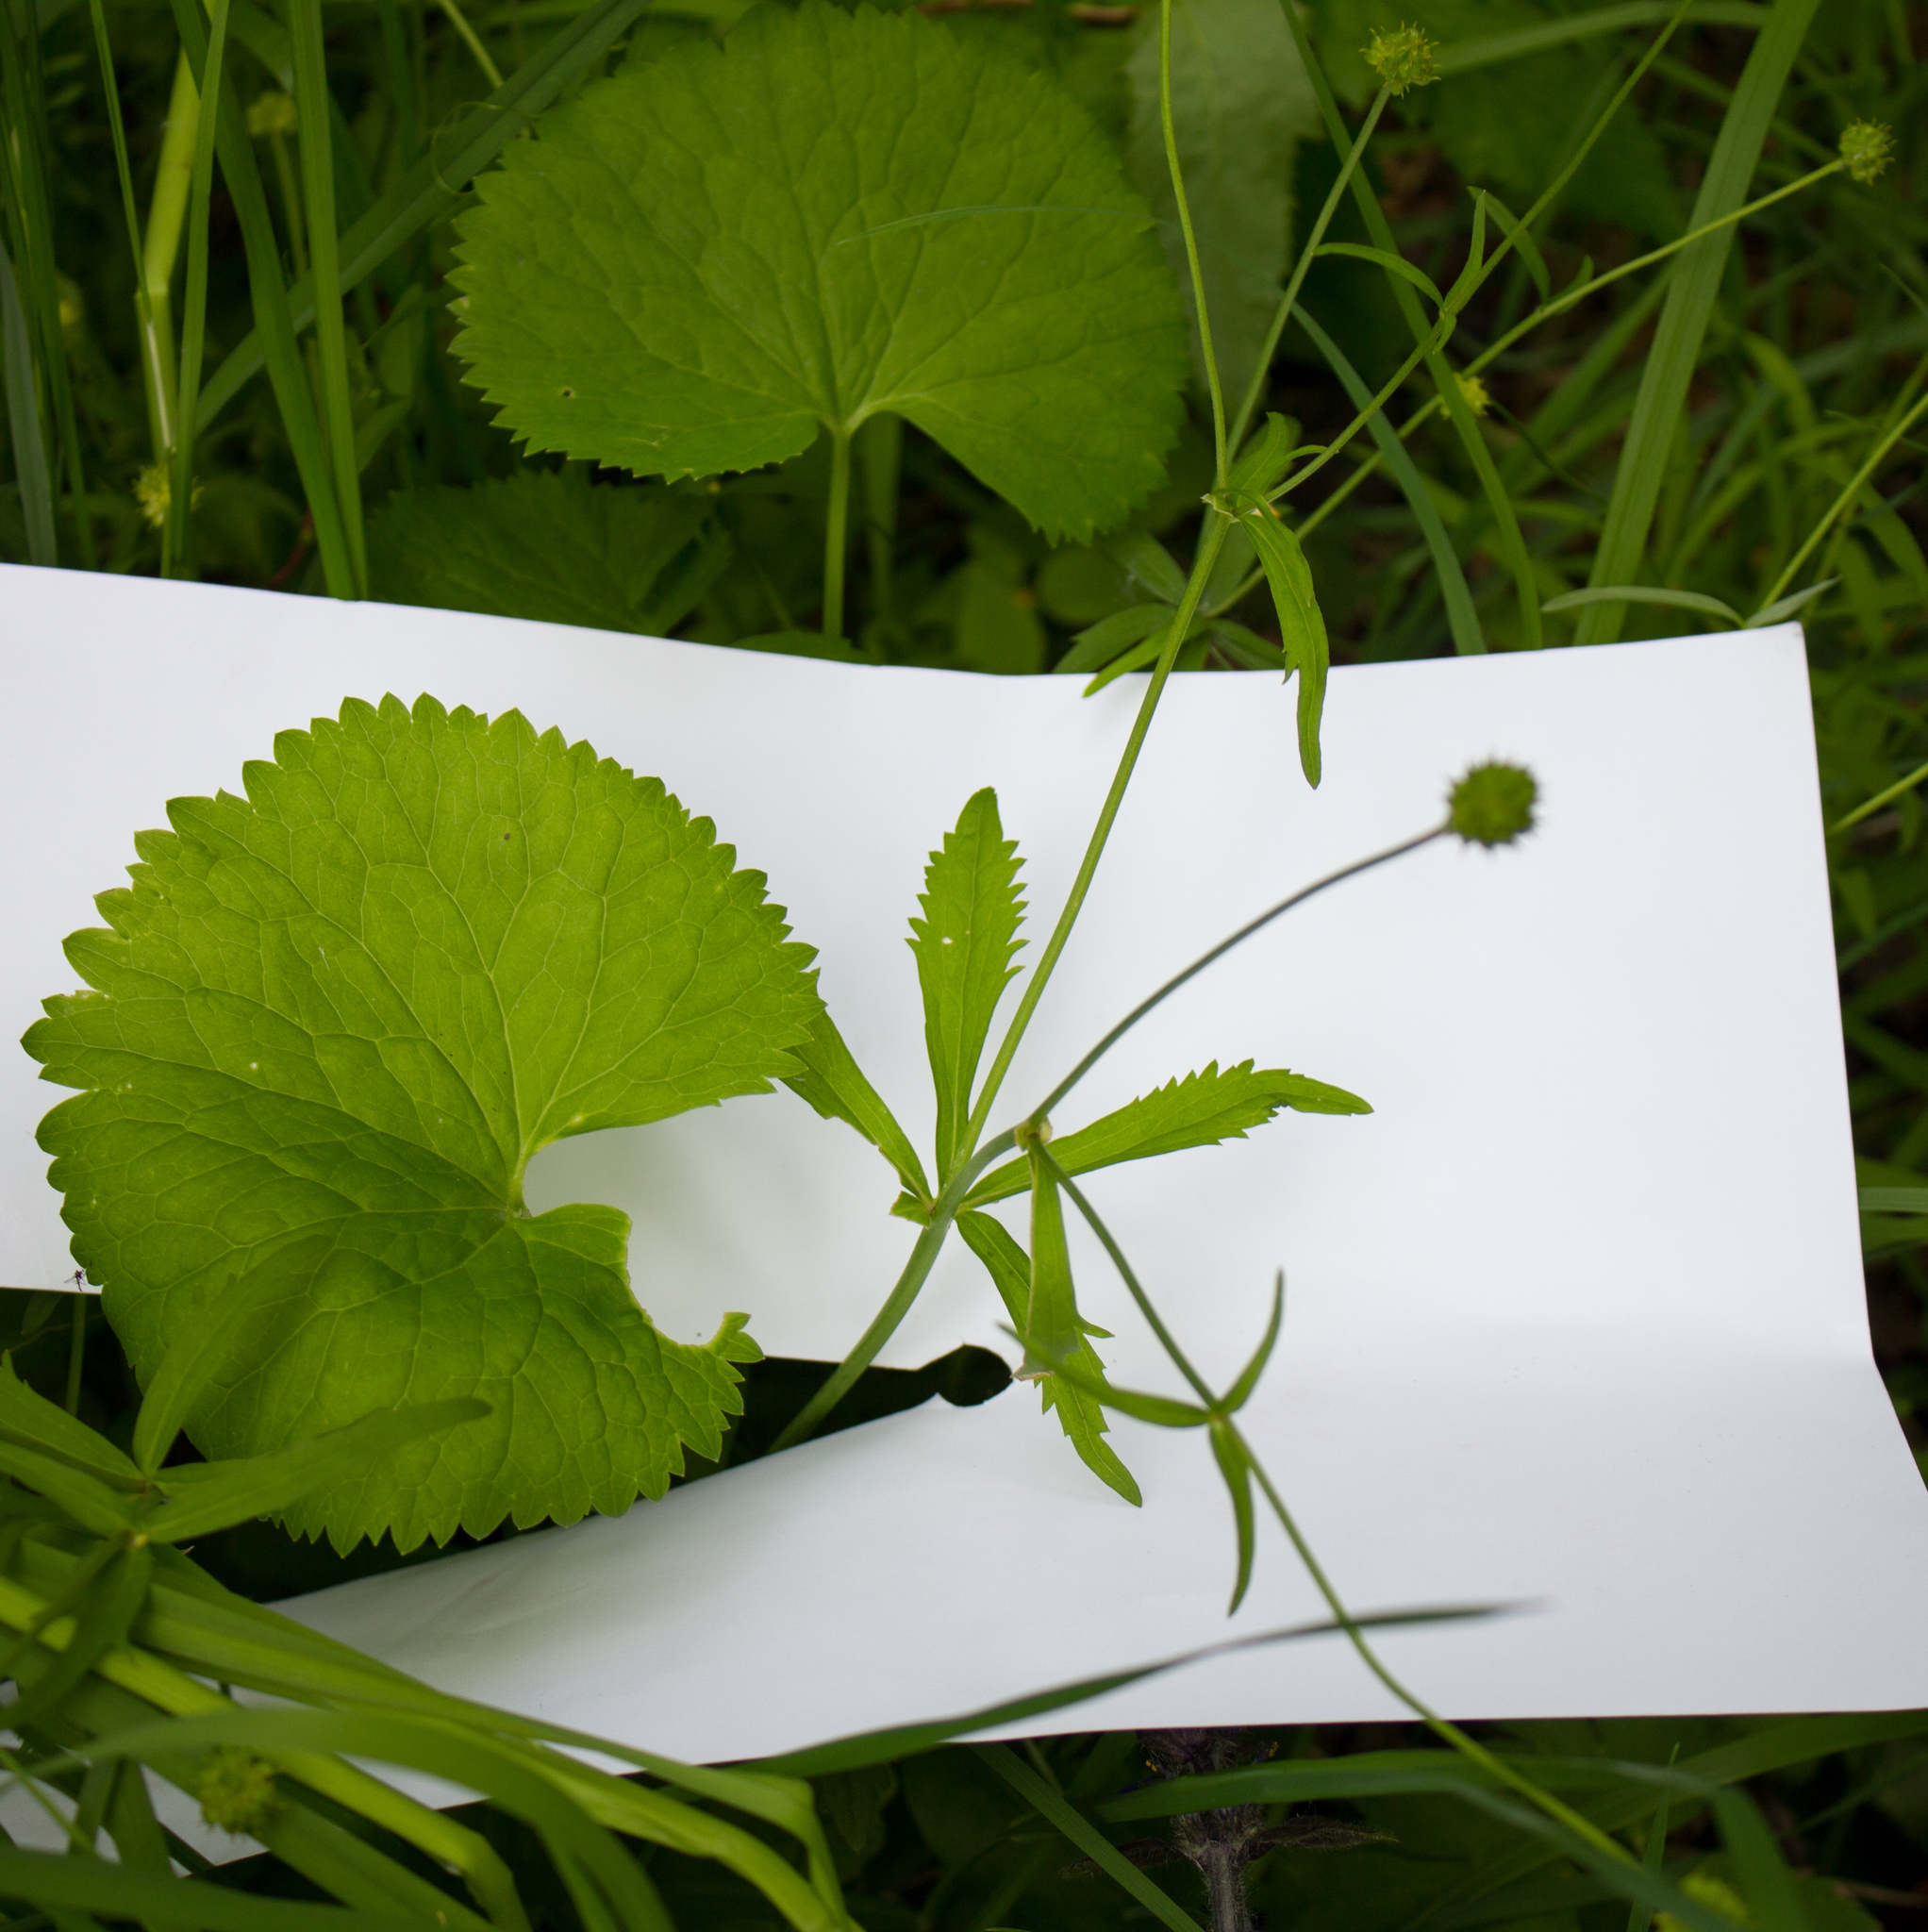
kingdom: Plantae
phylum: Tracheophyta
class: Magnoliopsida
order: Ranunculales
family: Ranunculaceae
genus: Ranunculus
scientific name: Ranunculus cassubicus
